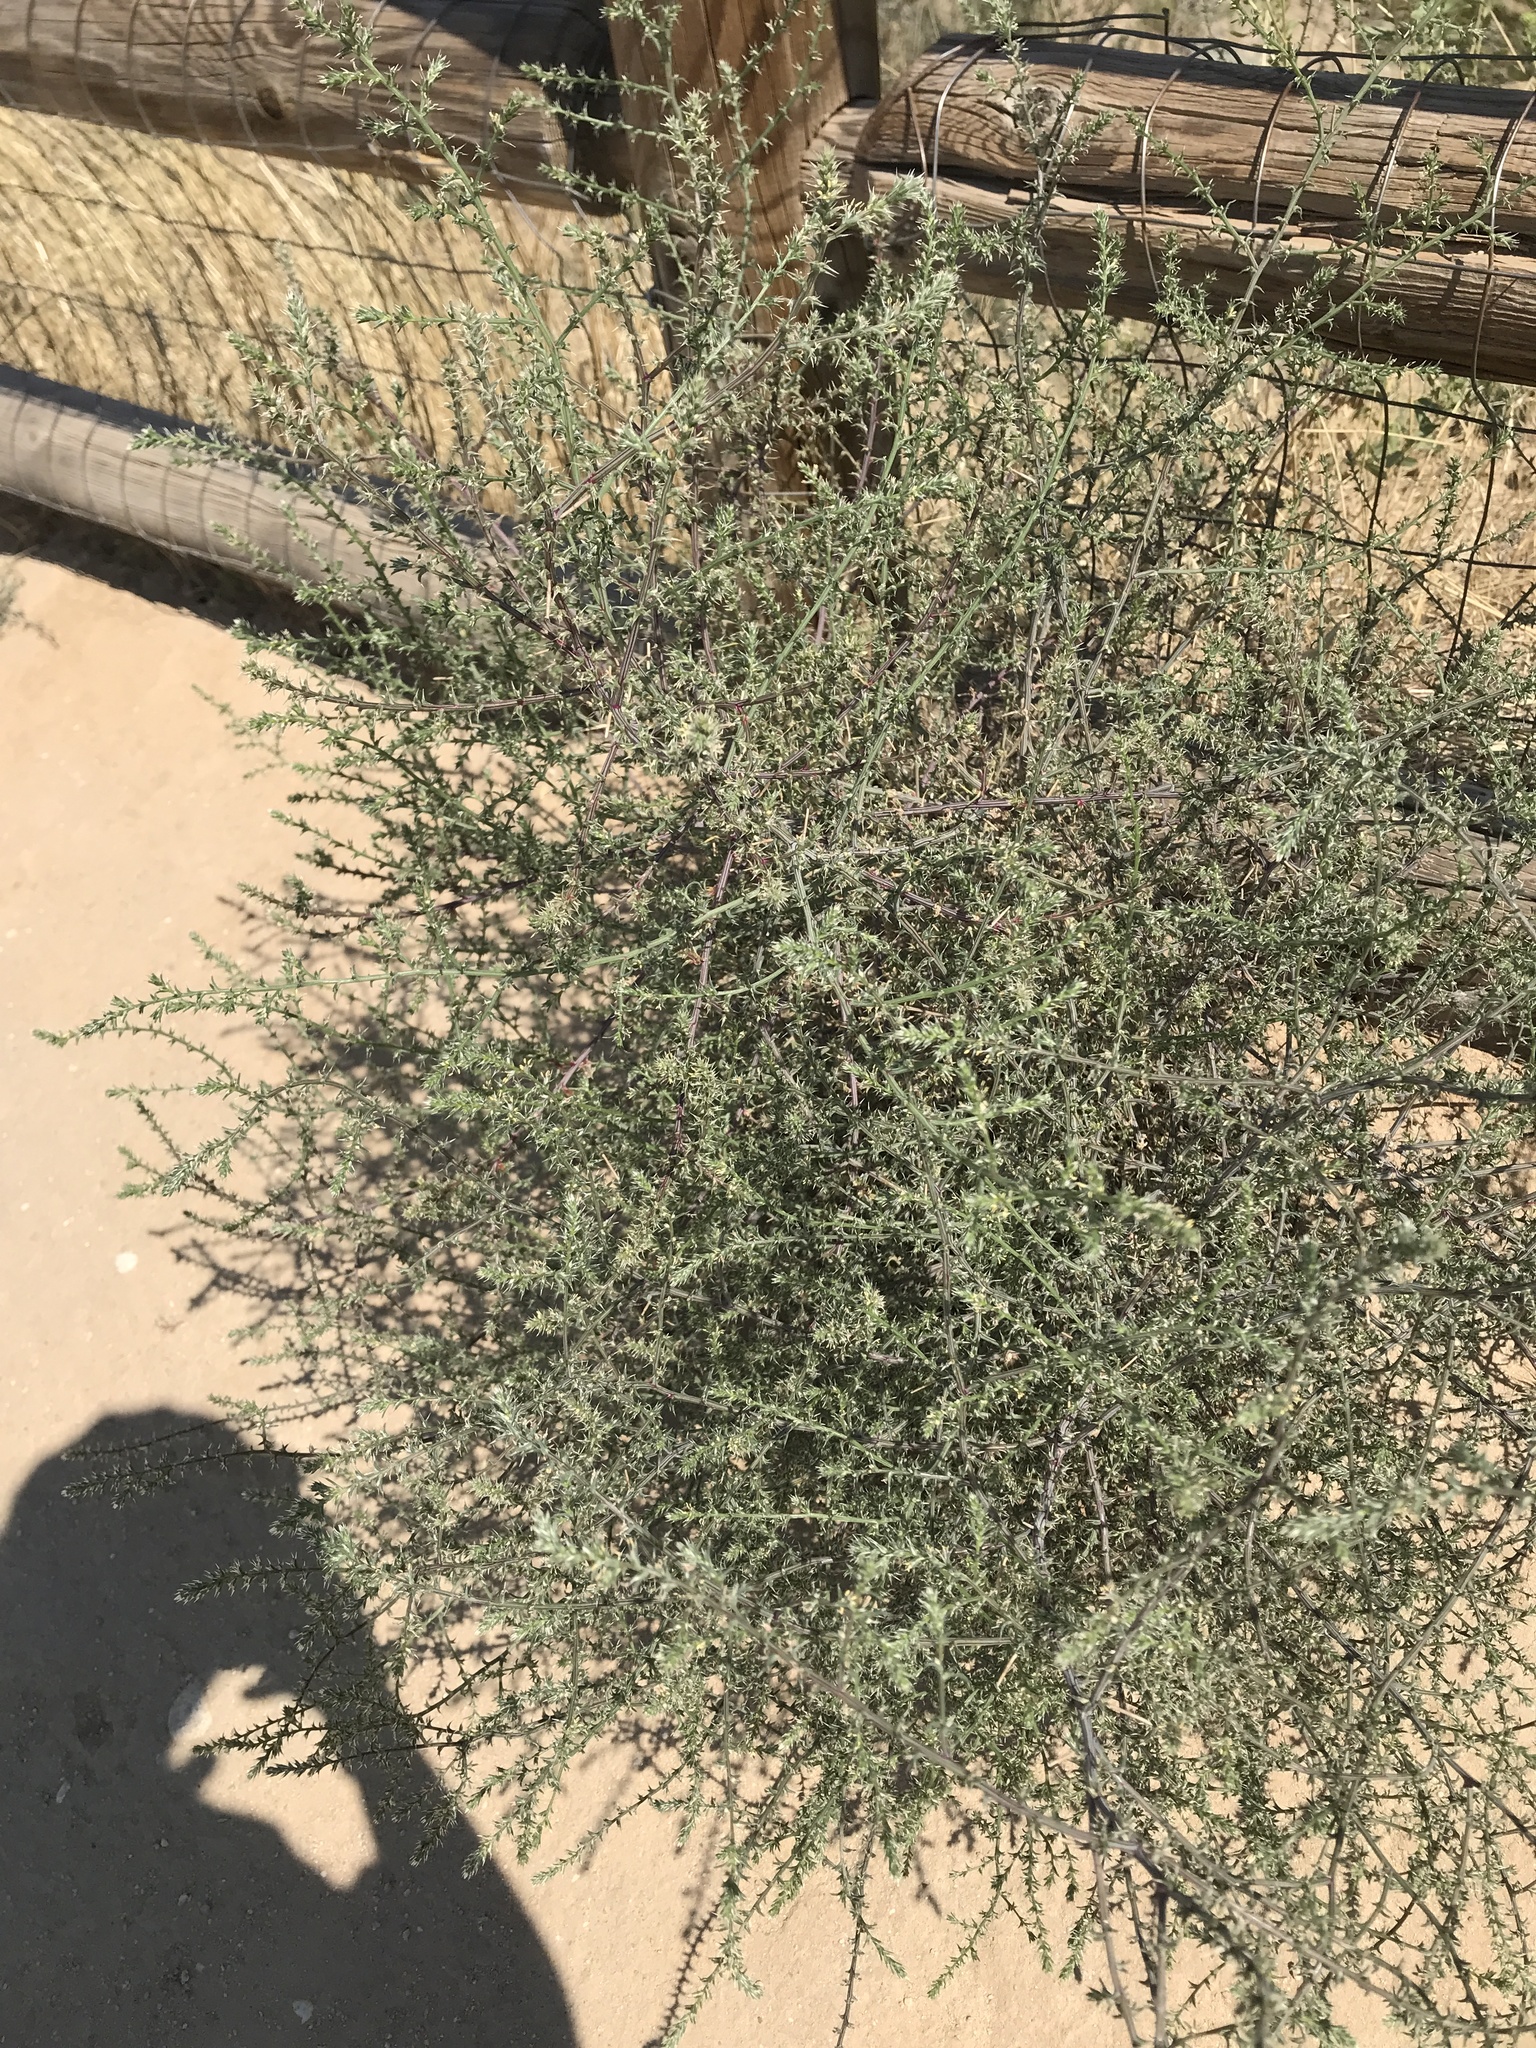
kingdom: Plantae
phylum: Tracheophyta
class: Magnoliopsida
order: Caryophyllales
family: Amaranthaceae
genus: Salsola
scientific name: Salsola tragus
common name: Prickly russian thistle
